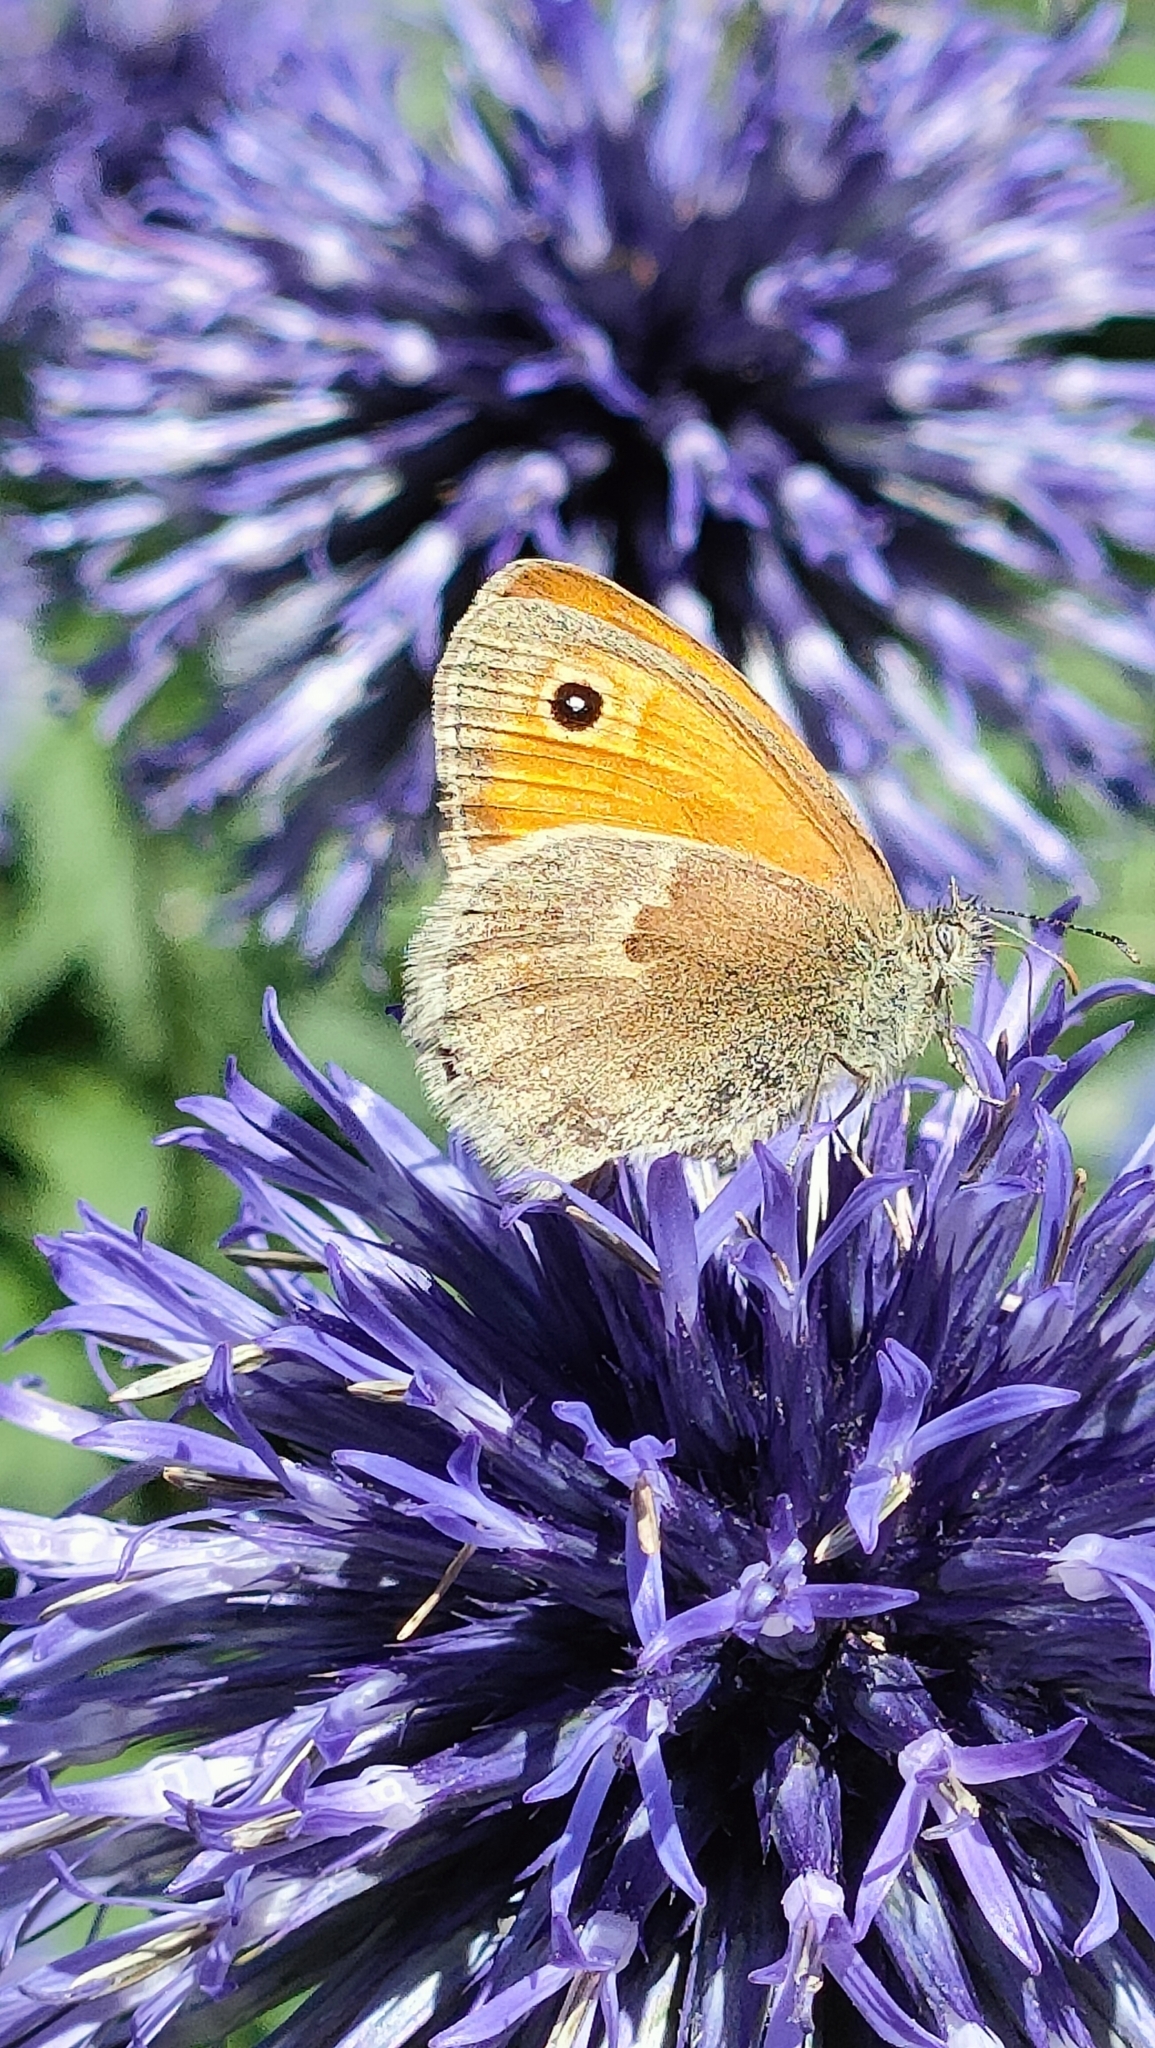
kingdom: Animalia
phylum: Arthropoda
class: Insecta
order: Lepidoptera
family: Nymphalidae
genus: Coenonympha
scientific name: Coenonympha pamphilus
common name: Small heath
